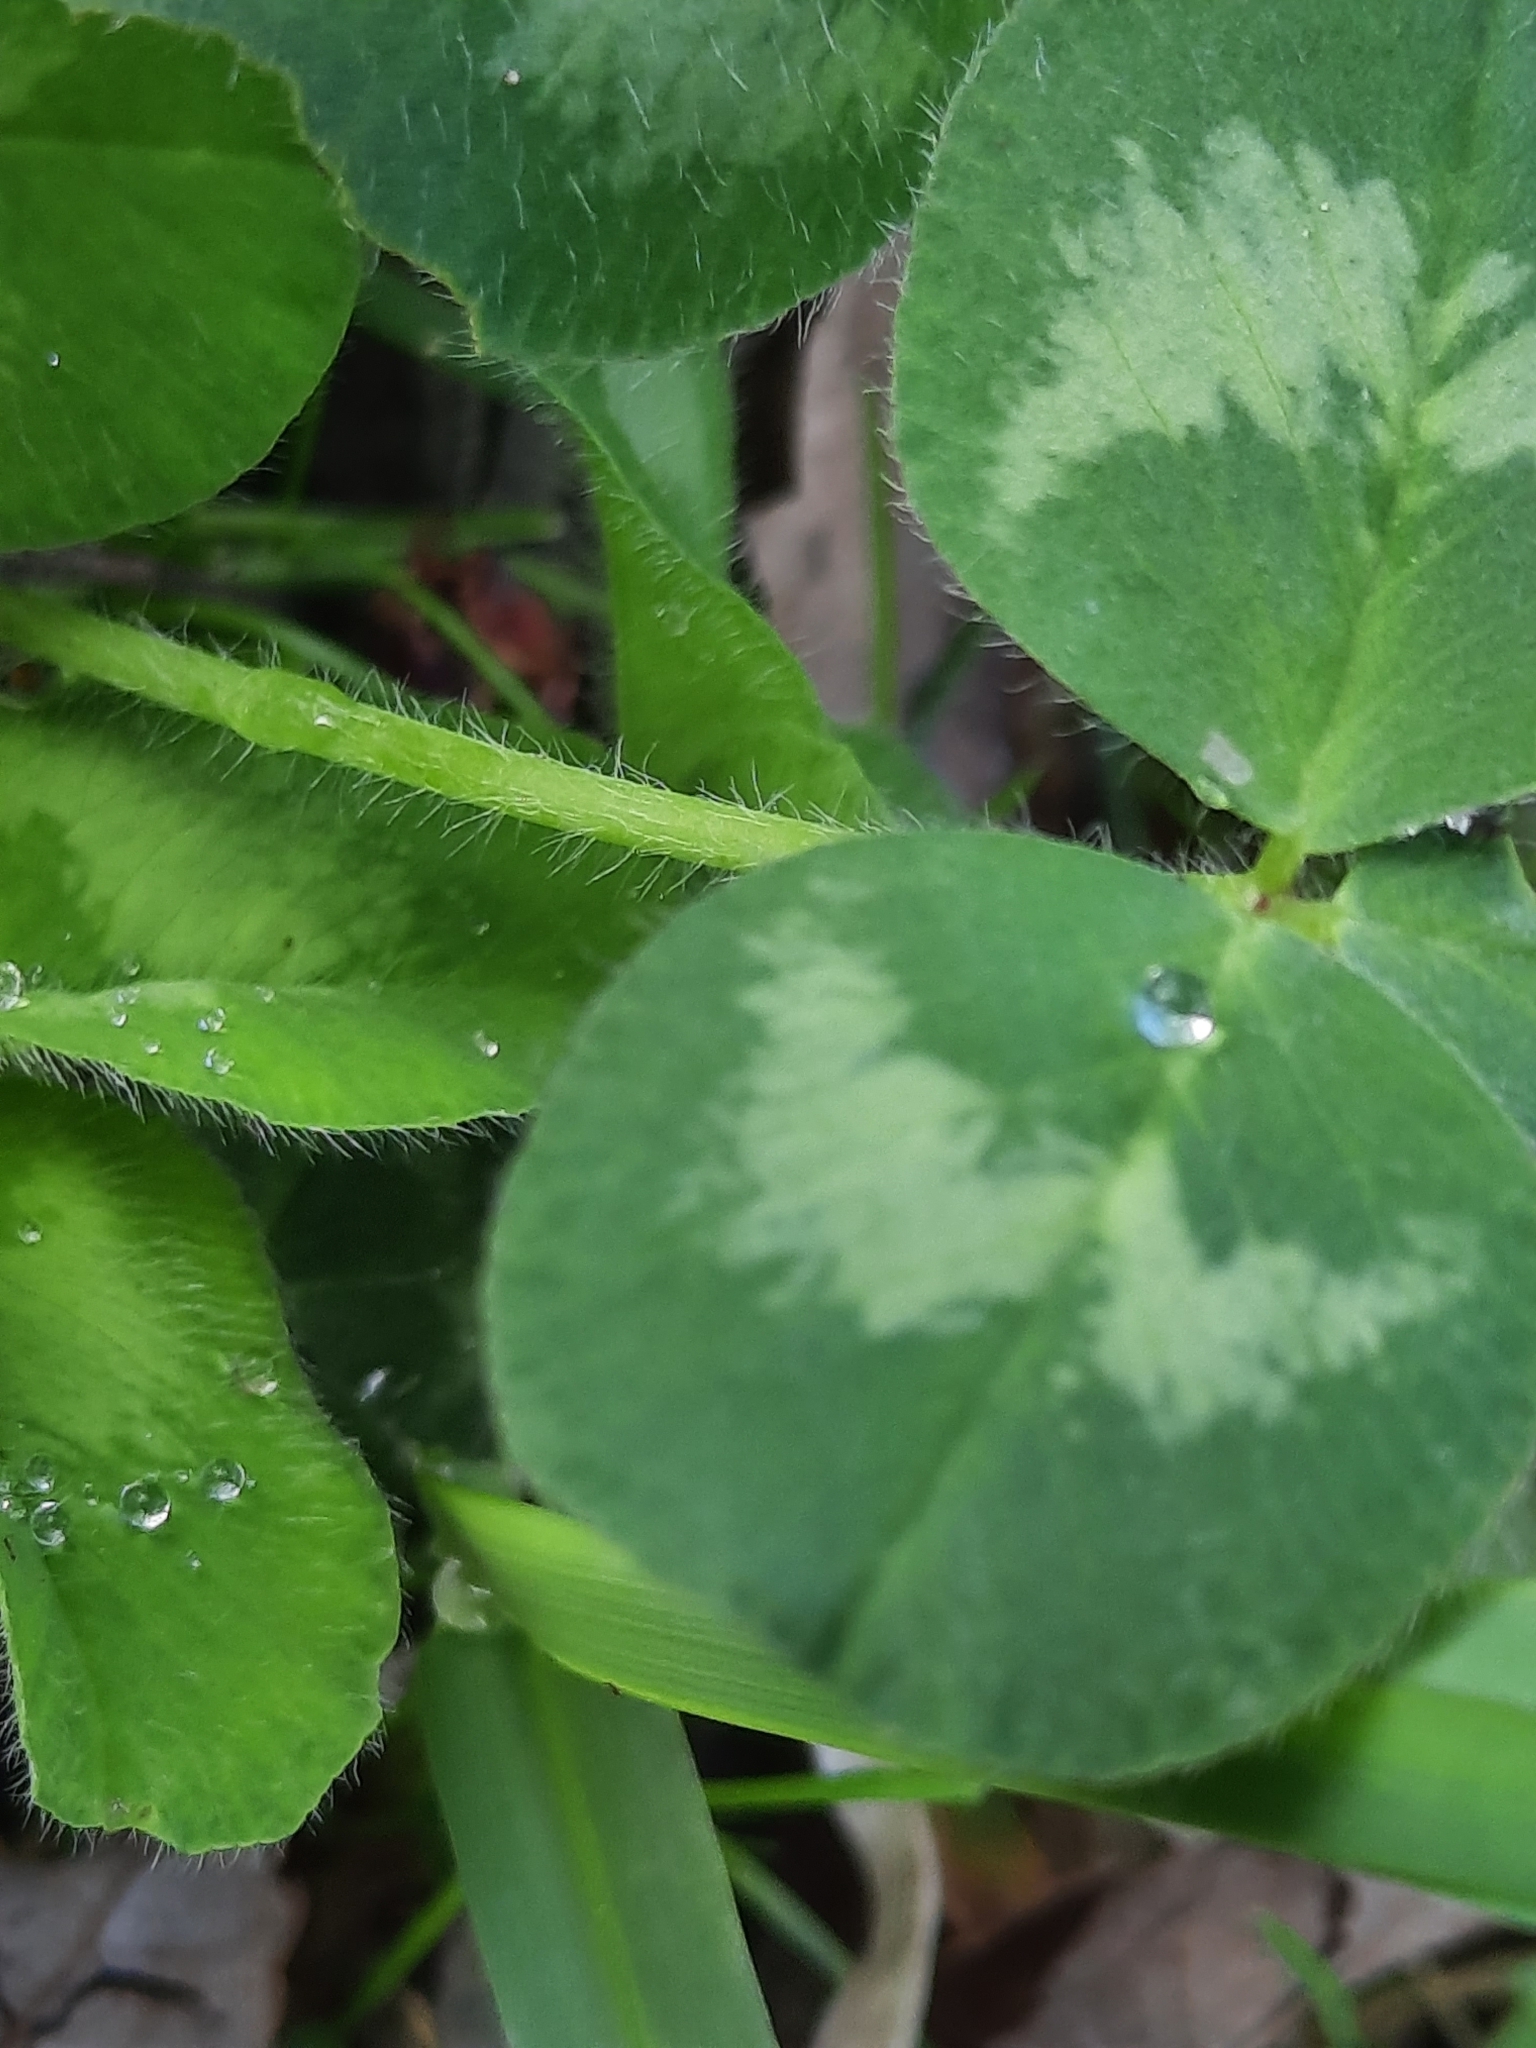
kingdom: Plantae
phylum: Tracheophyta
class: Magnoliopsida
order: Fabales
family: Fabaceae
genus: Trifolium
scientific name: Trifolium pratense
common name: Red clover
